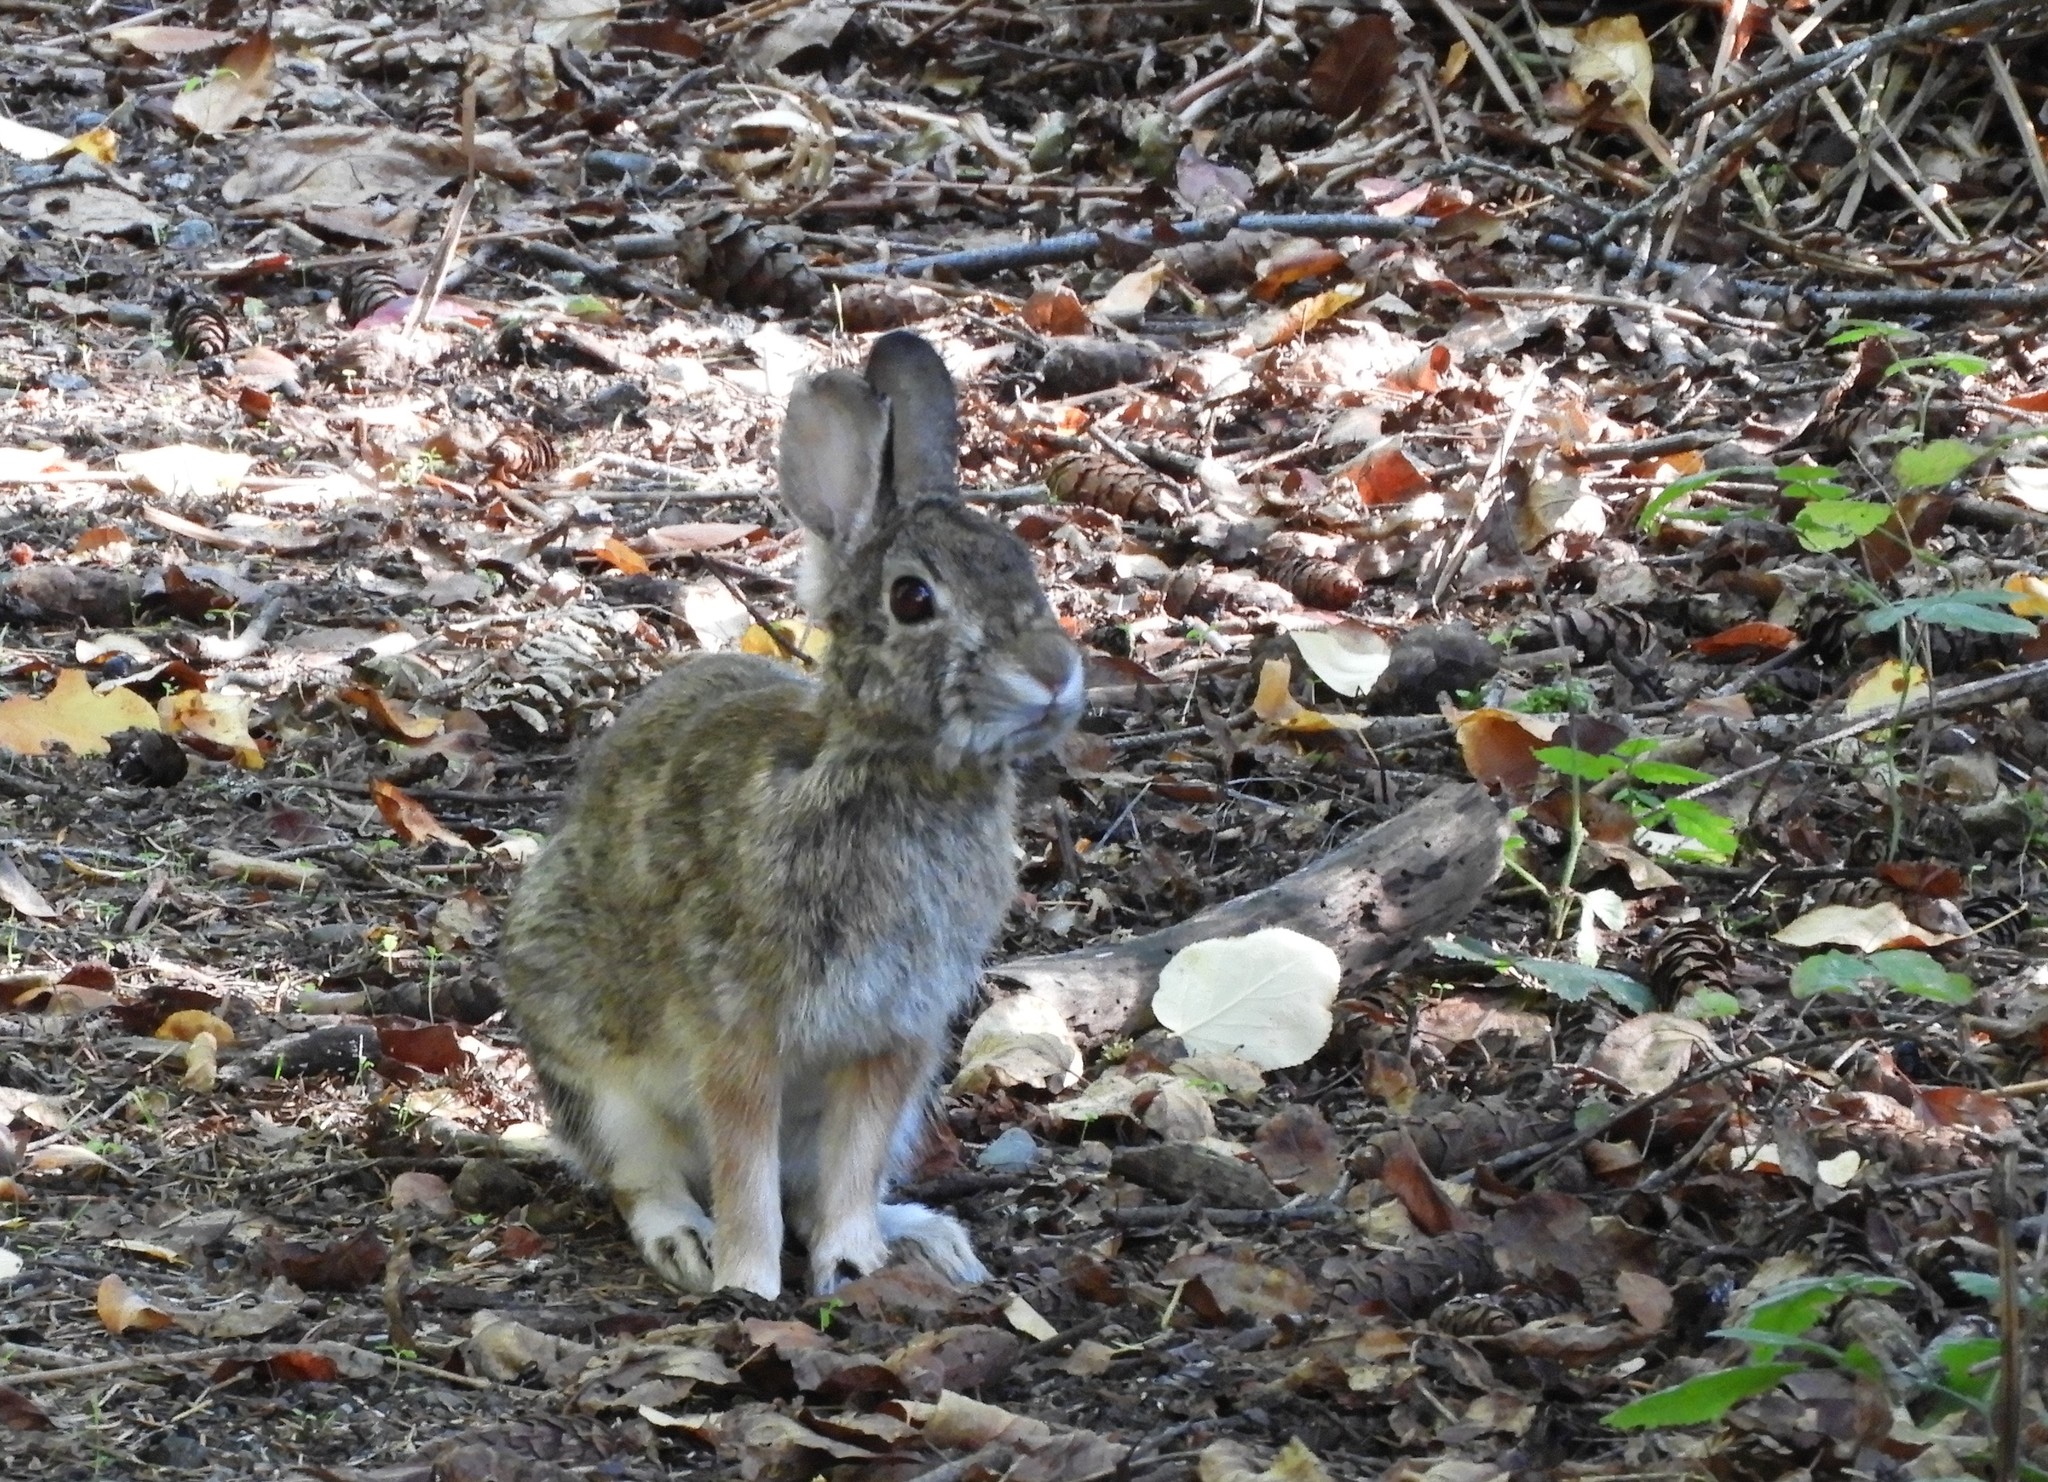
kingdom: Animalia
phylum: Chordata
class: Mammalia
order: Lagomorpha
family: Leporidae
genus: Sylvilagus
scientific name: Sylvilagus floridanus
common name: Eastern cottontail
